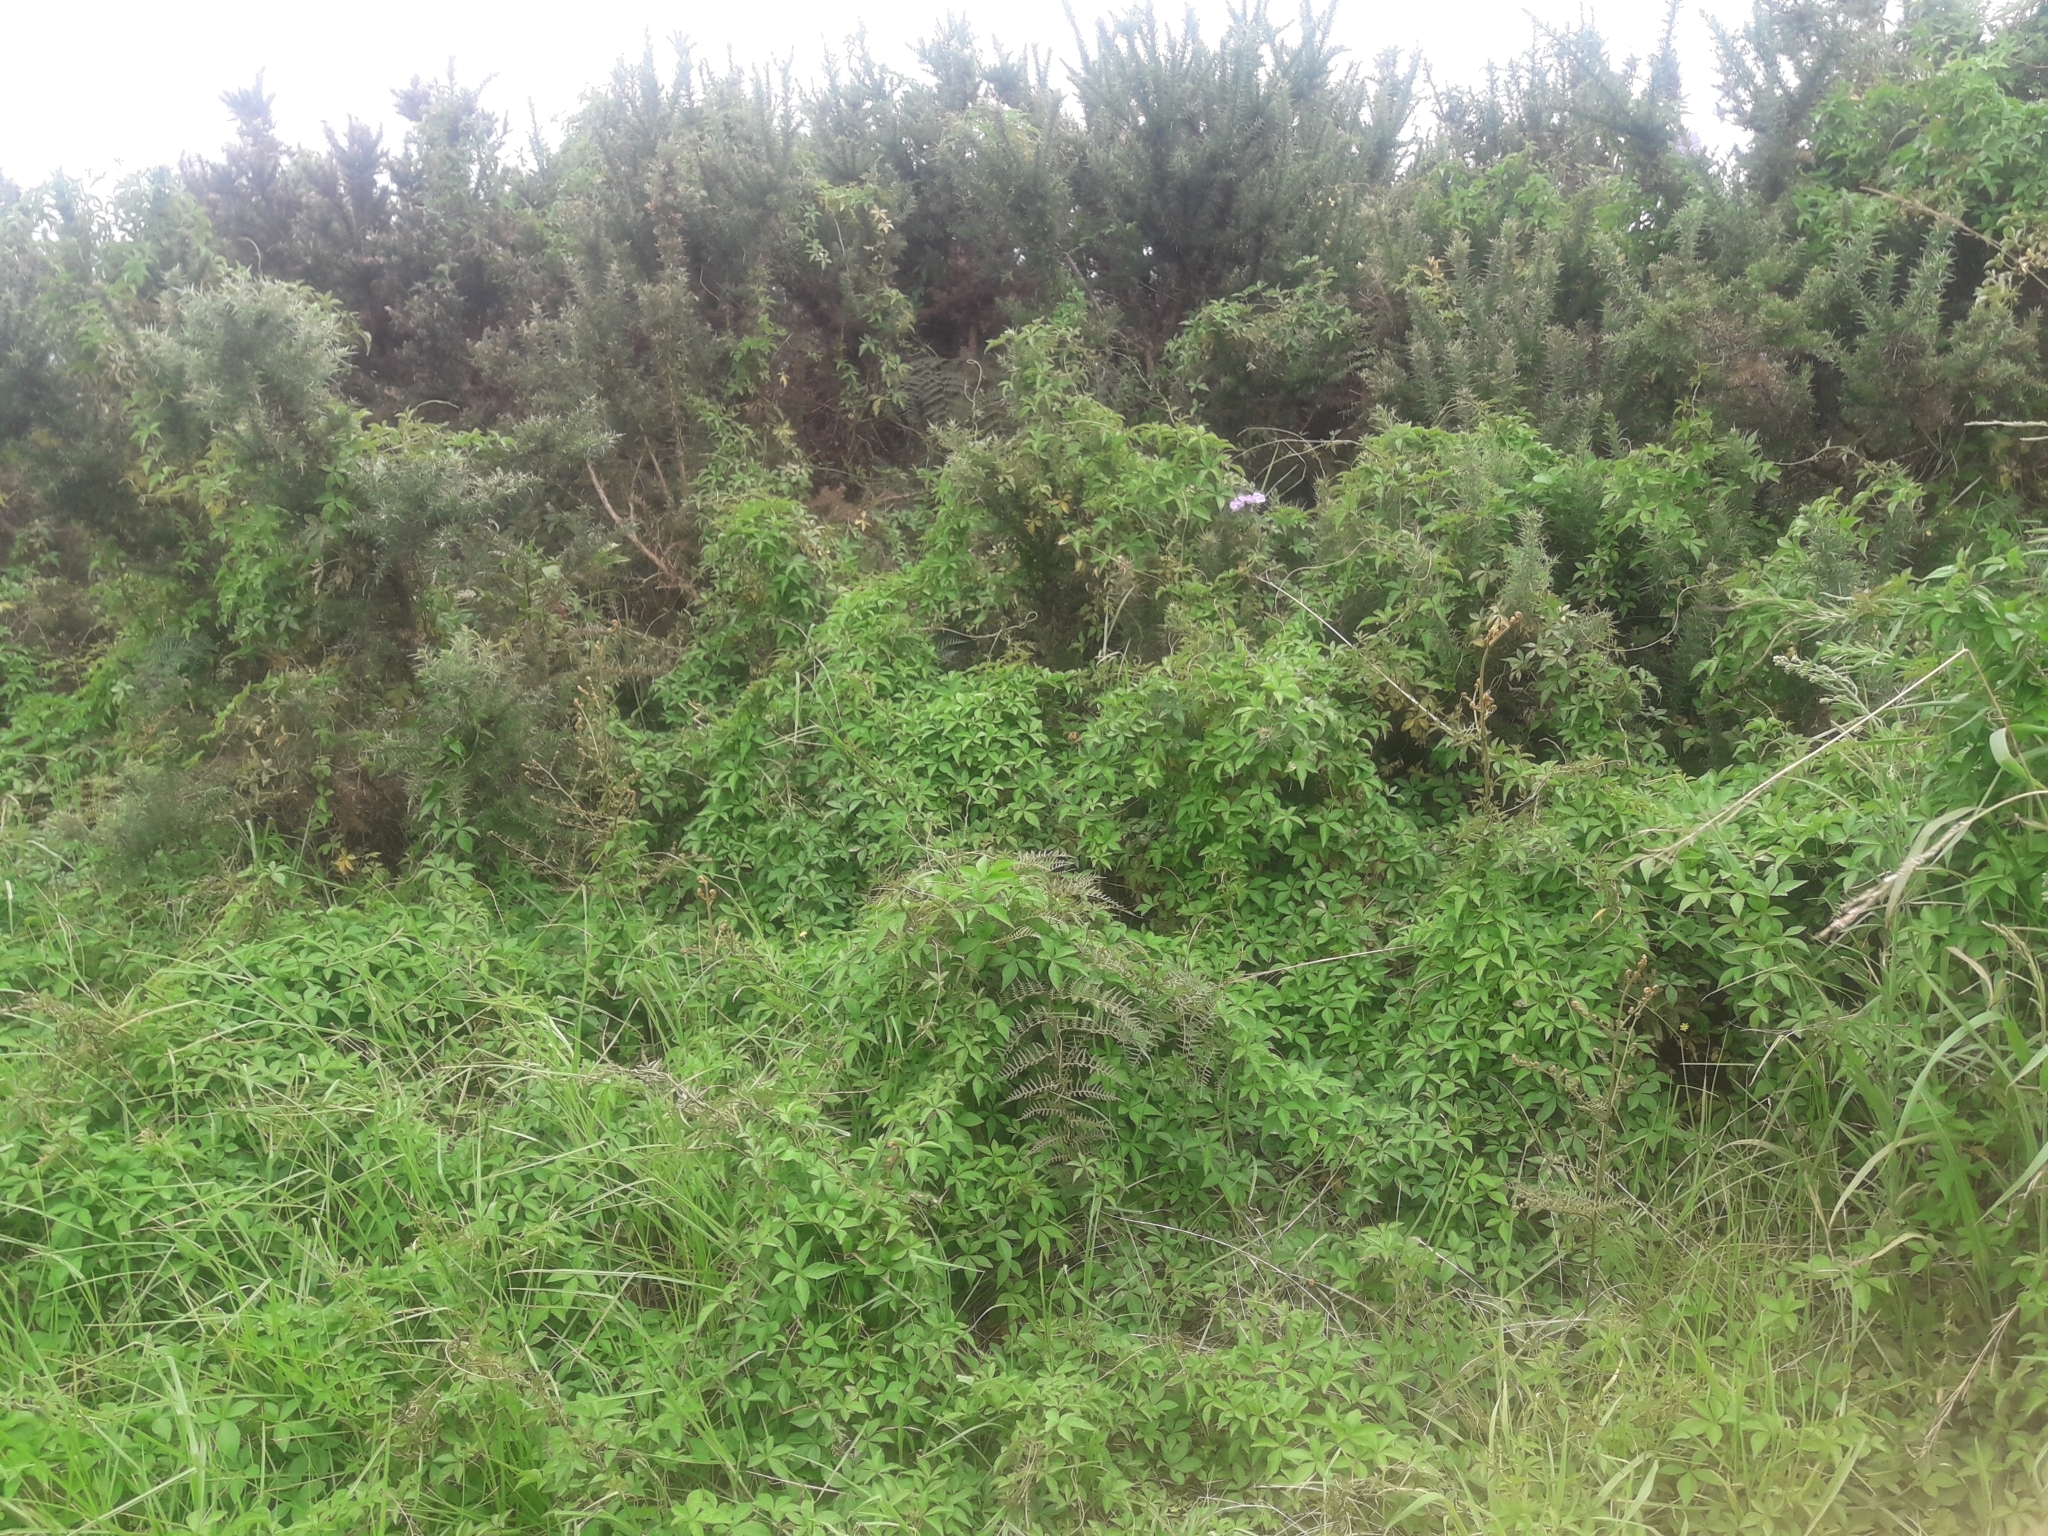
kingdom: Plantae
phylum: Tracheophyta
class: Magnoliopsida
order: Solanales
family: Convolvulaceae
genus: Ipomoea
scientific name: Ipomoea cairica
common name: Mile a minute vine
